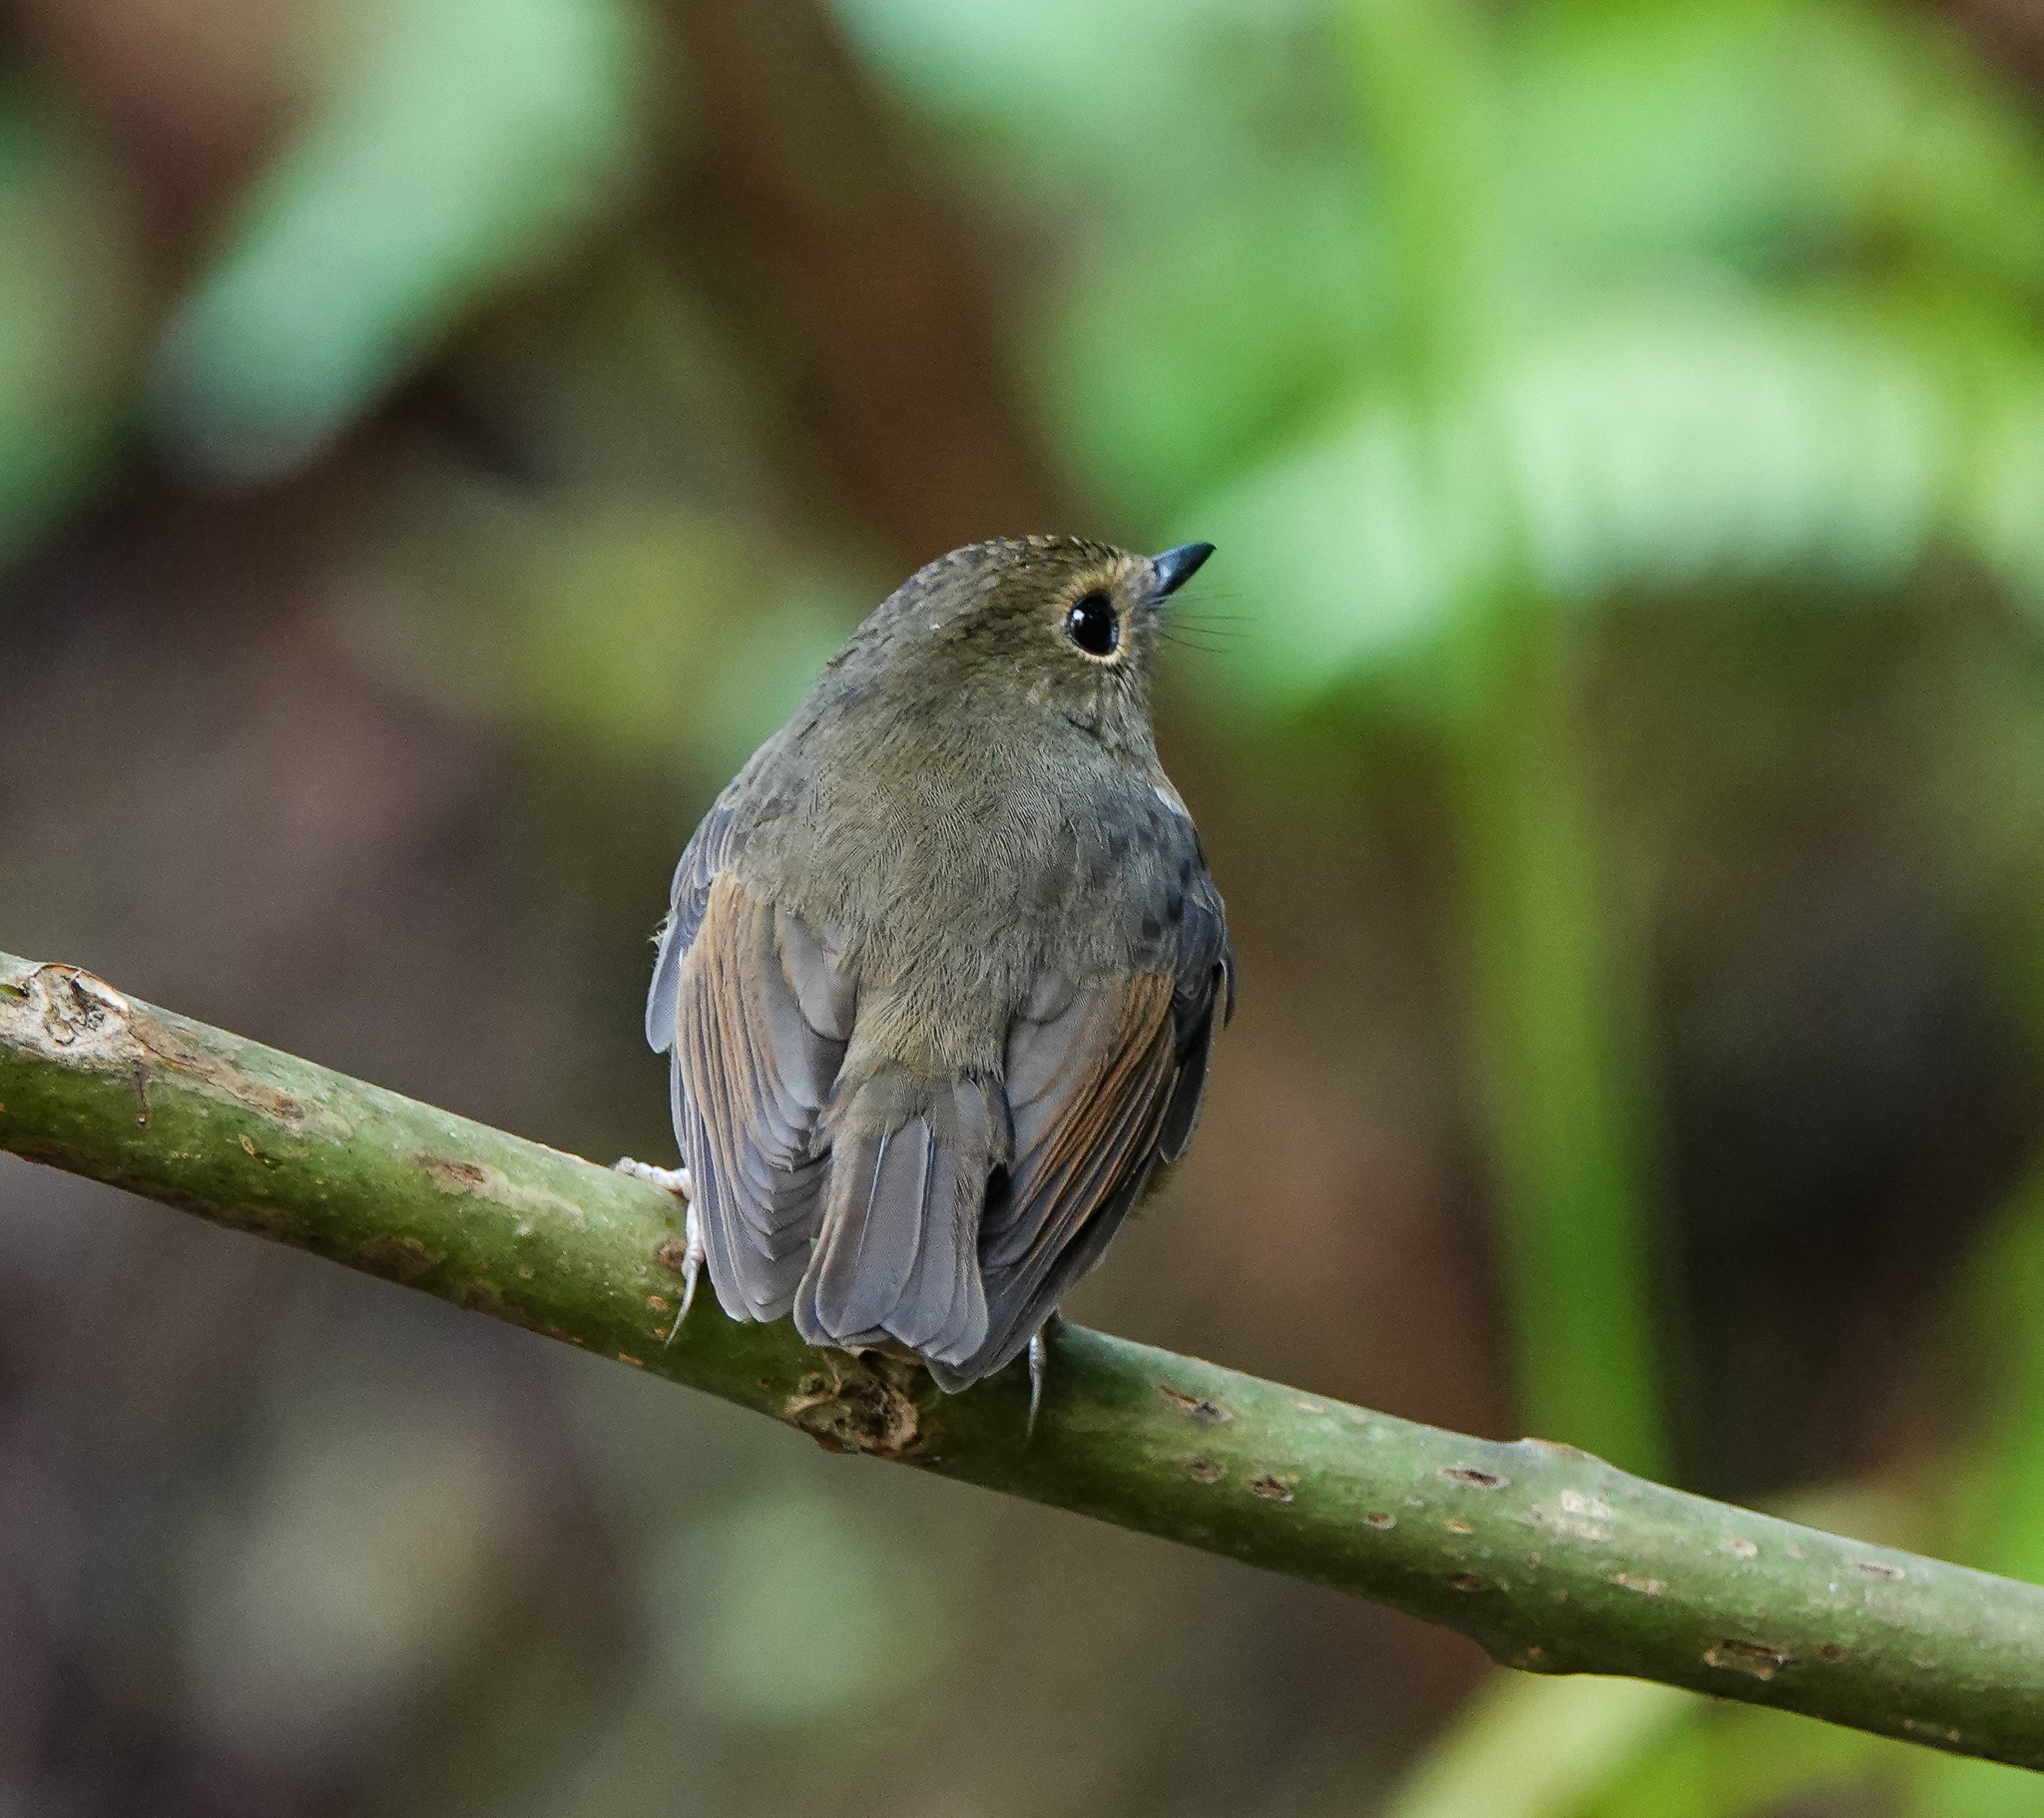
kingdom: Animalia
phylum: Chordata
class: Aves
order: Passeriformes
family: Muscicapidae
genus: Ficedula
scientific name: Ficedula hyperythra
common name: Snowy-browed flycatcher
